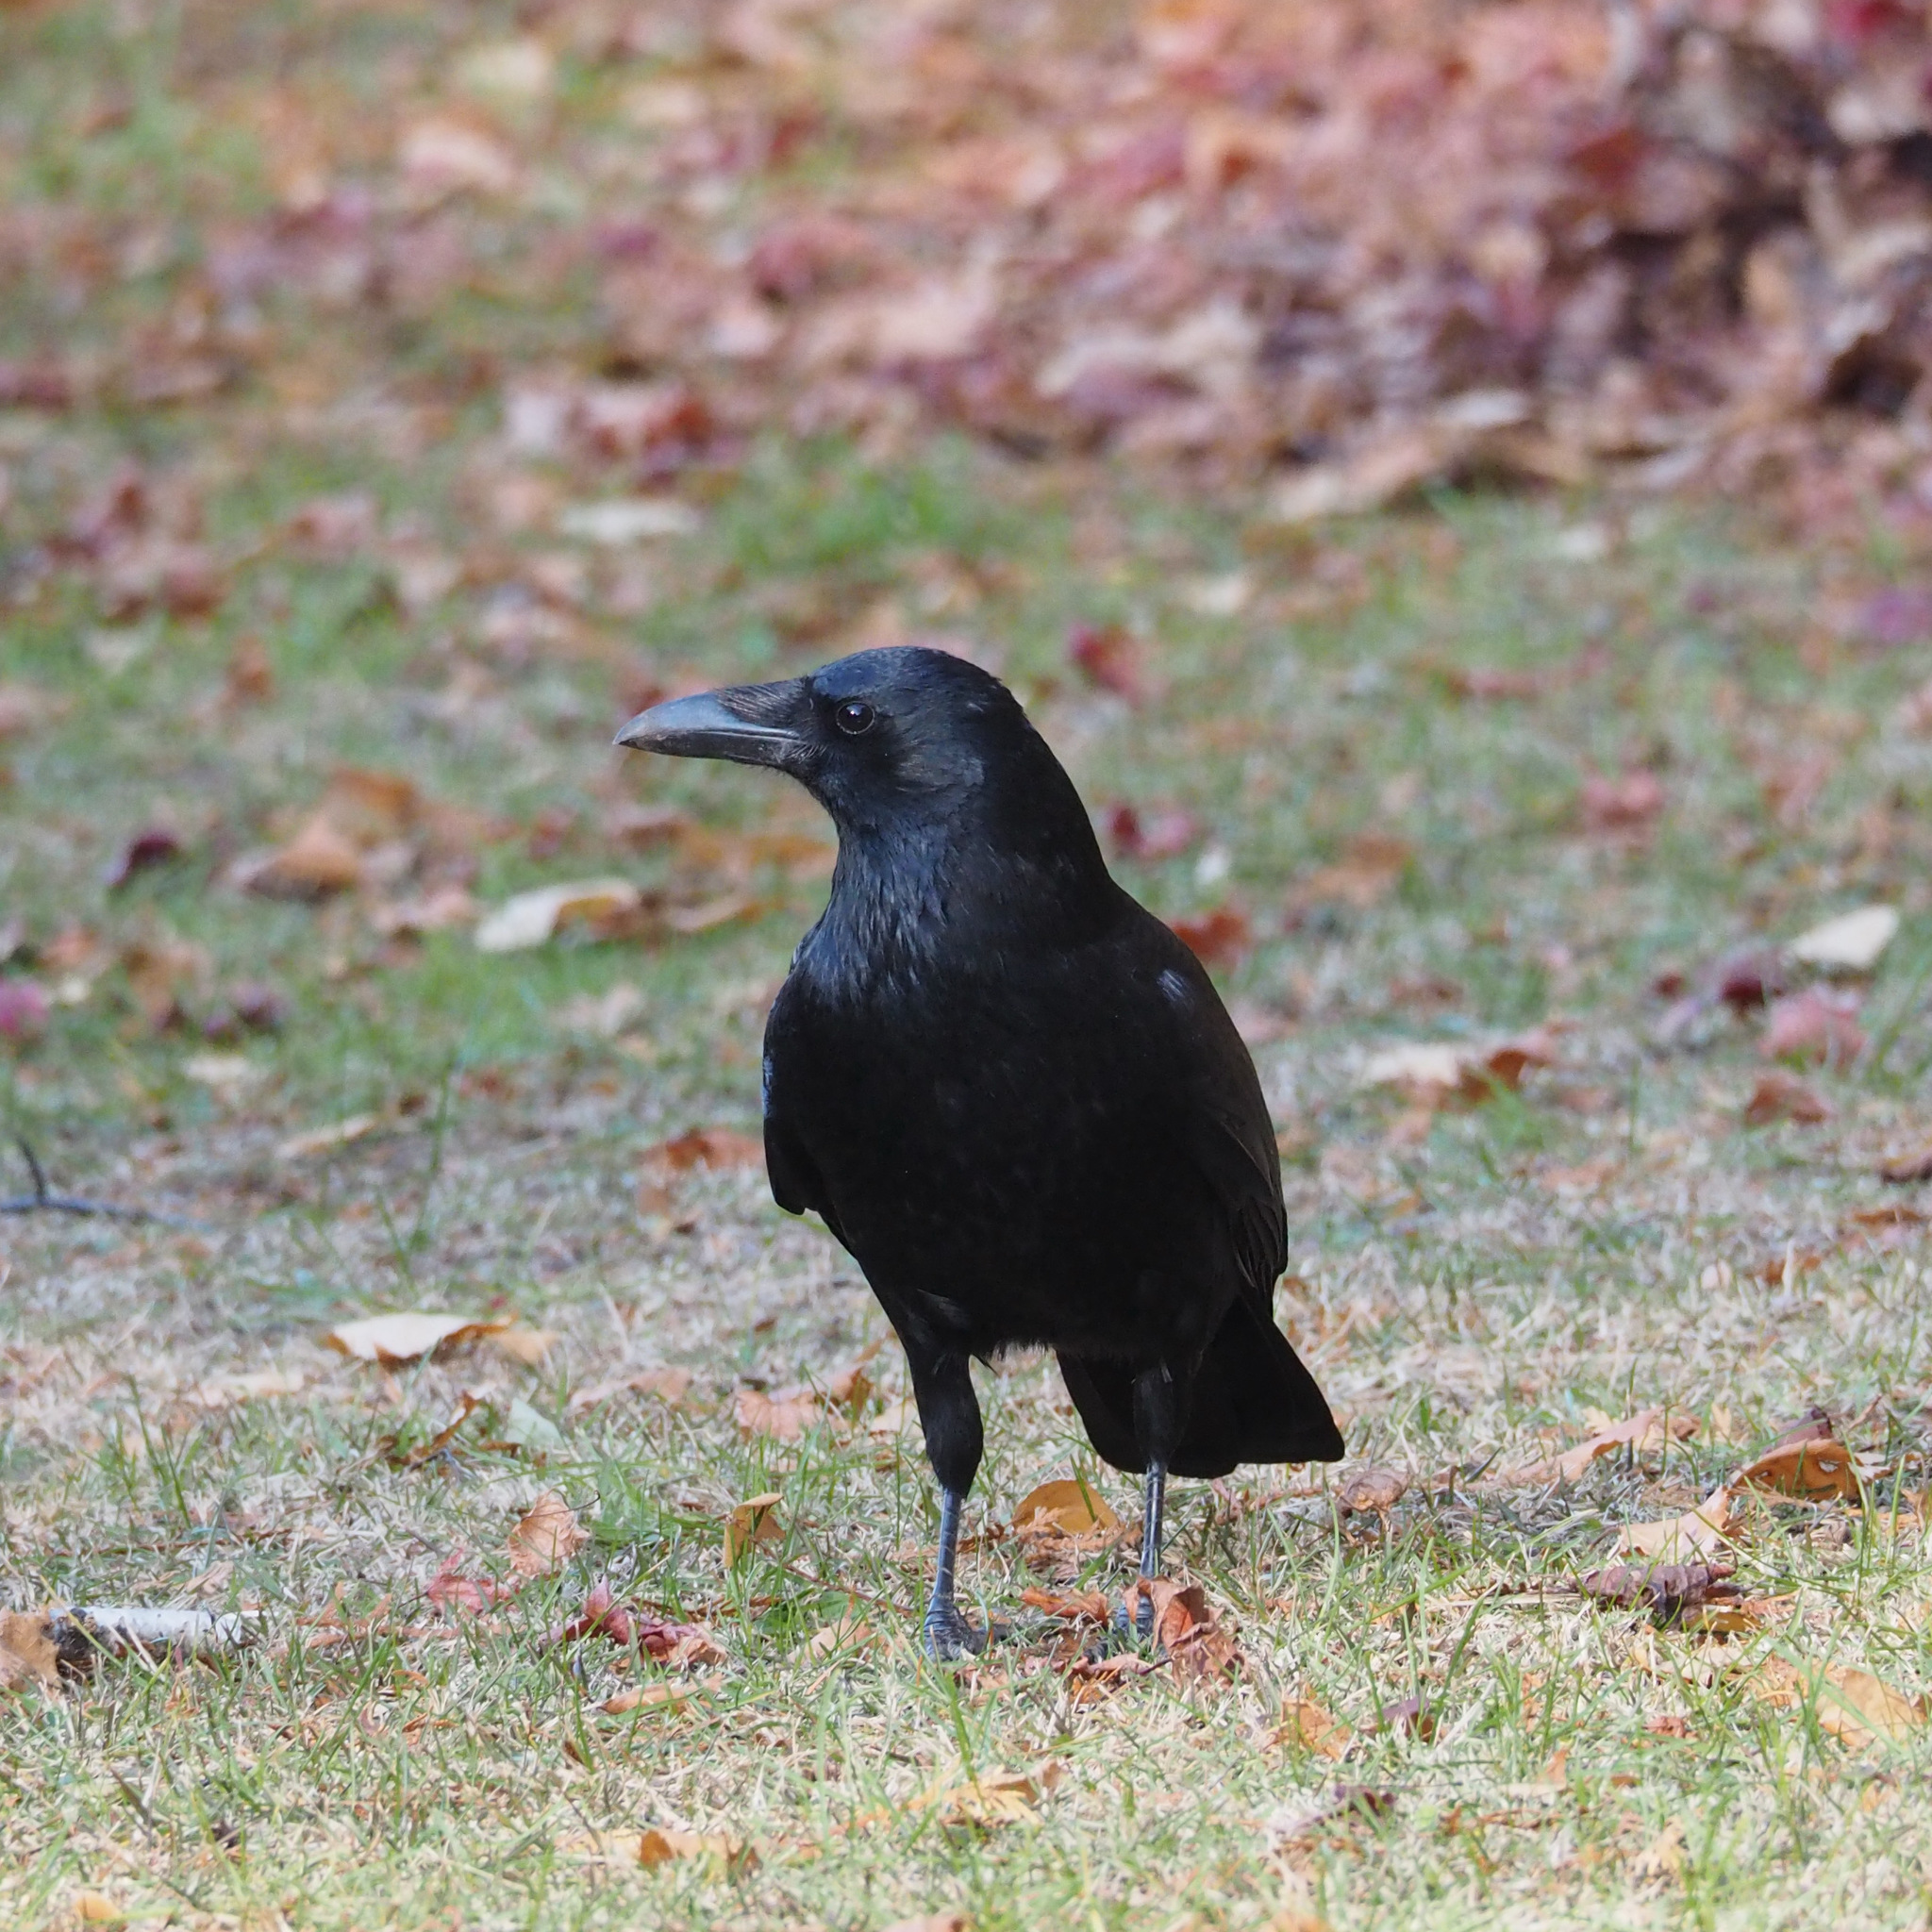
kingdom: Animalia
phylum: Chordata
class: Aves
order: Passeriformes
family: Corvidae
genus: Corvus
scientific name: Corvus corone
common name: Carrion crow
